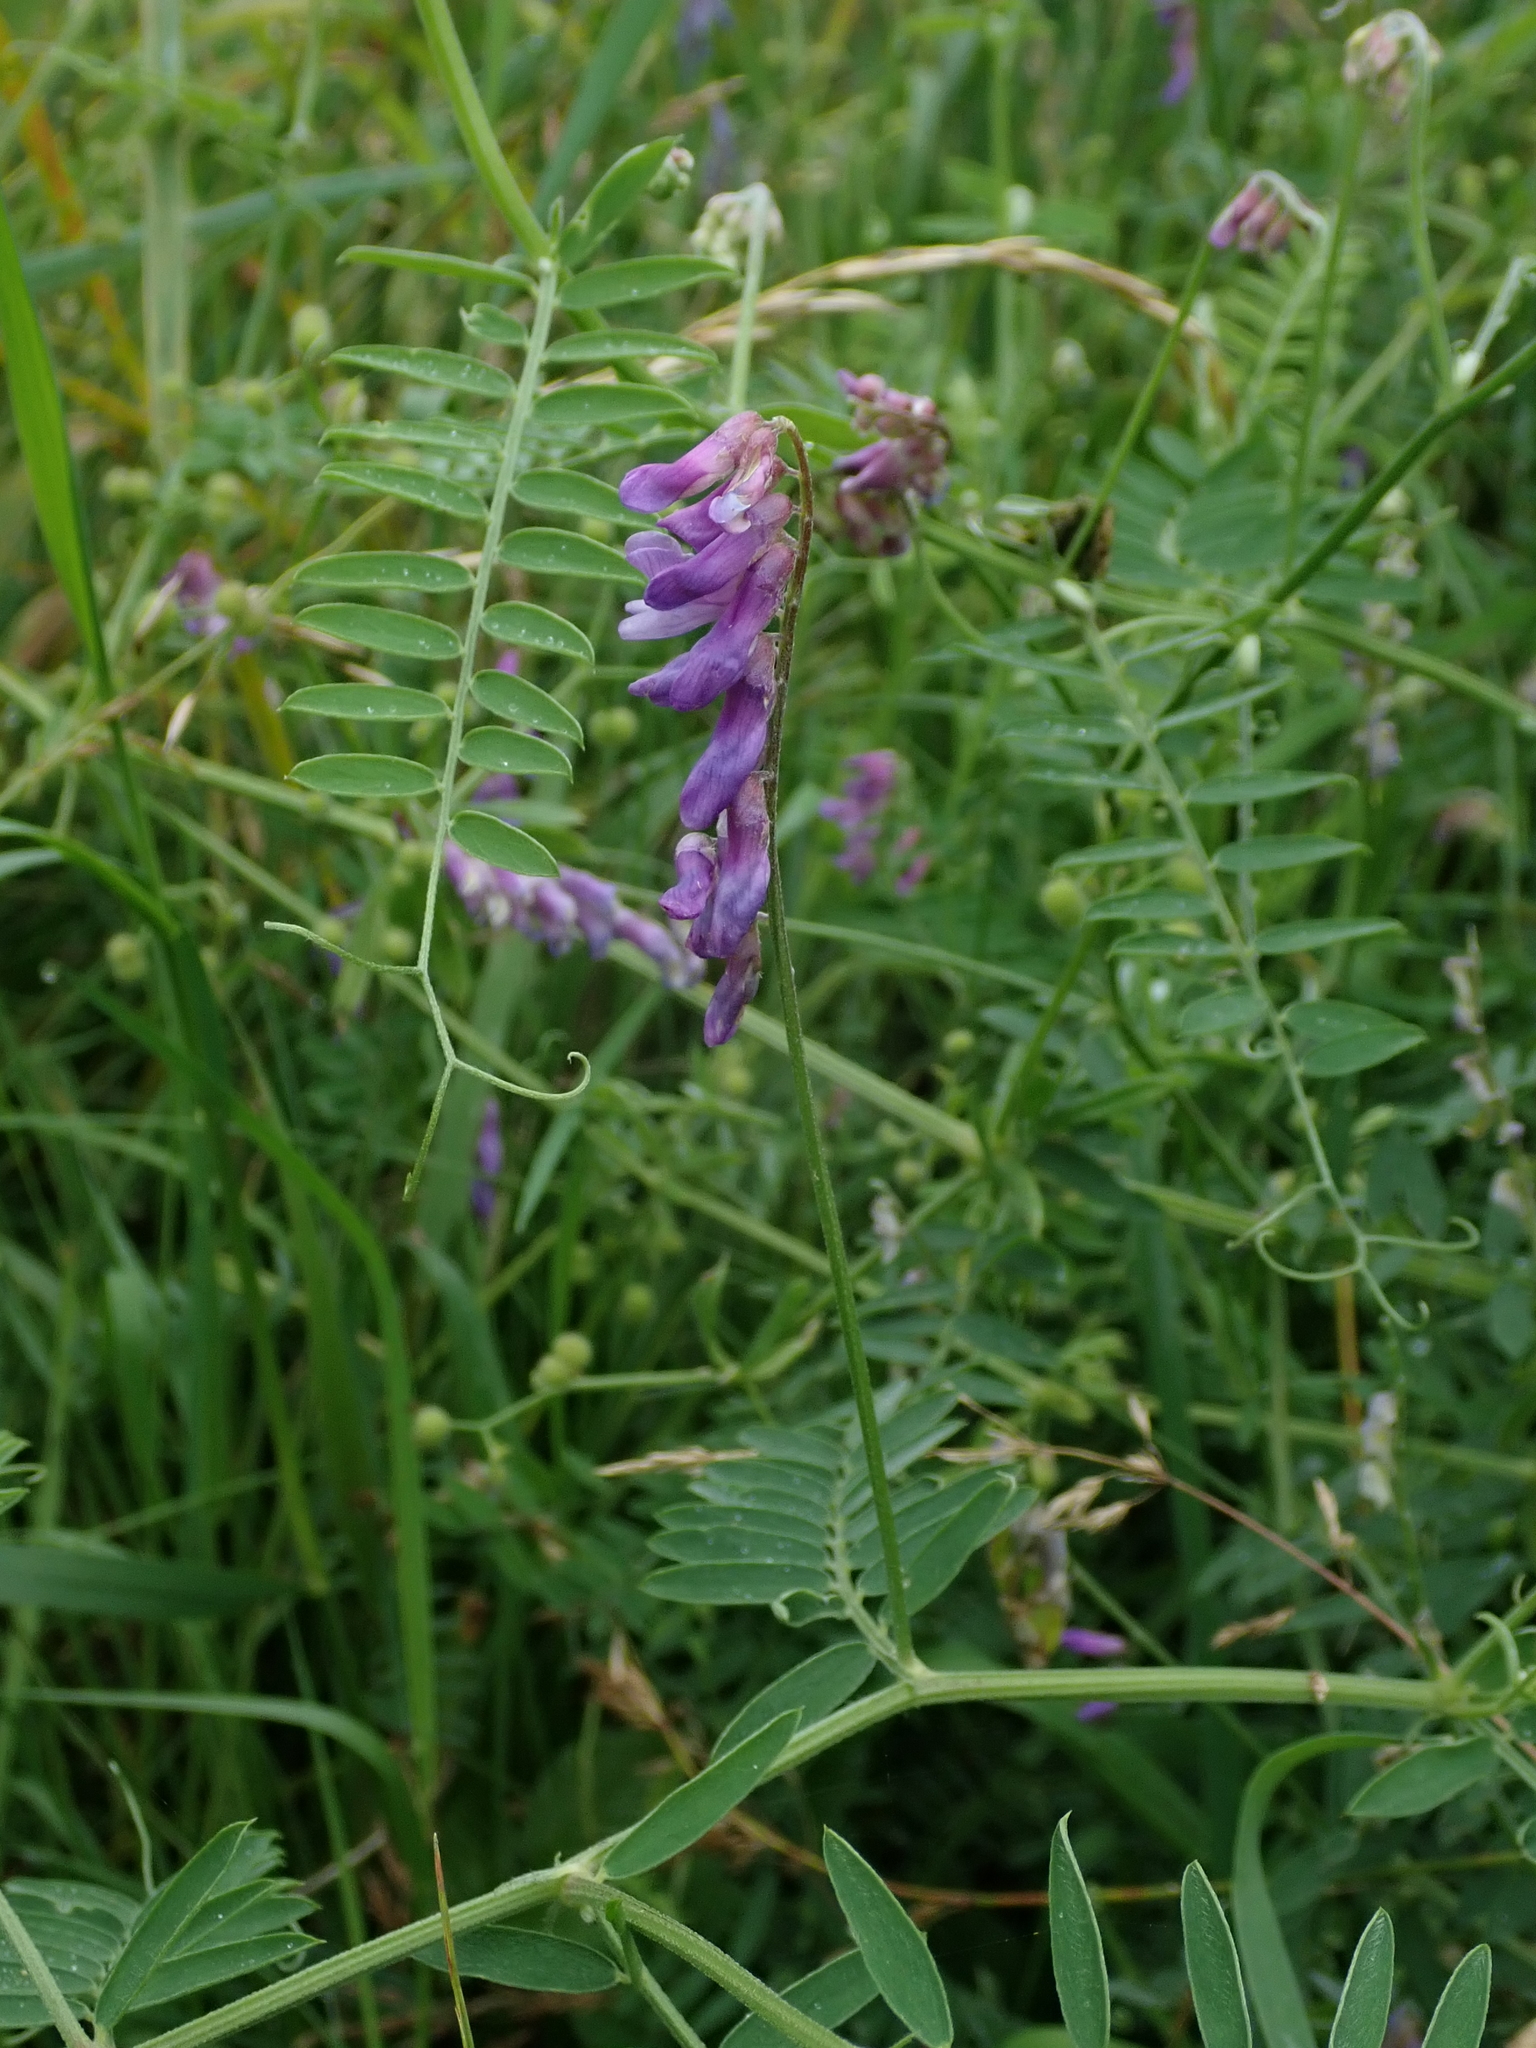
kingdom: Plantae
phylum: Tracheophyta
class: Magnoliopsida
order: Fabales
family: Fabaceae
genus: Vicia
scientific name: Vicia cracca
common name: Bird vetch
